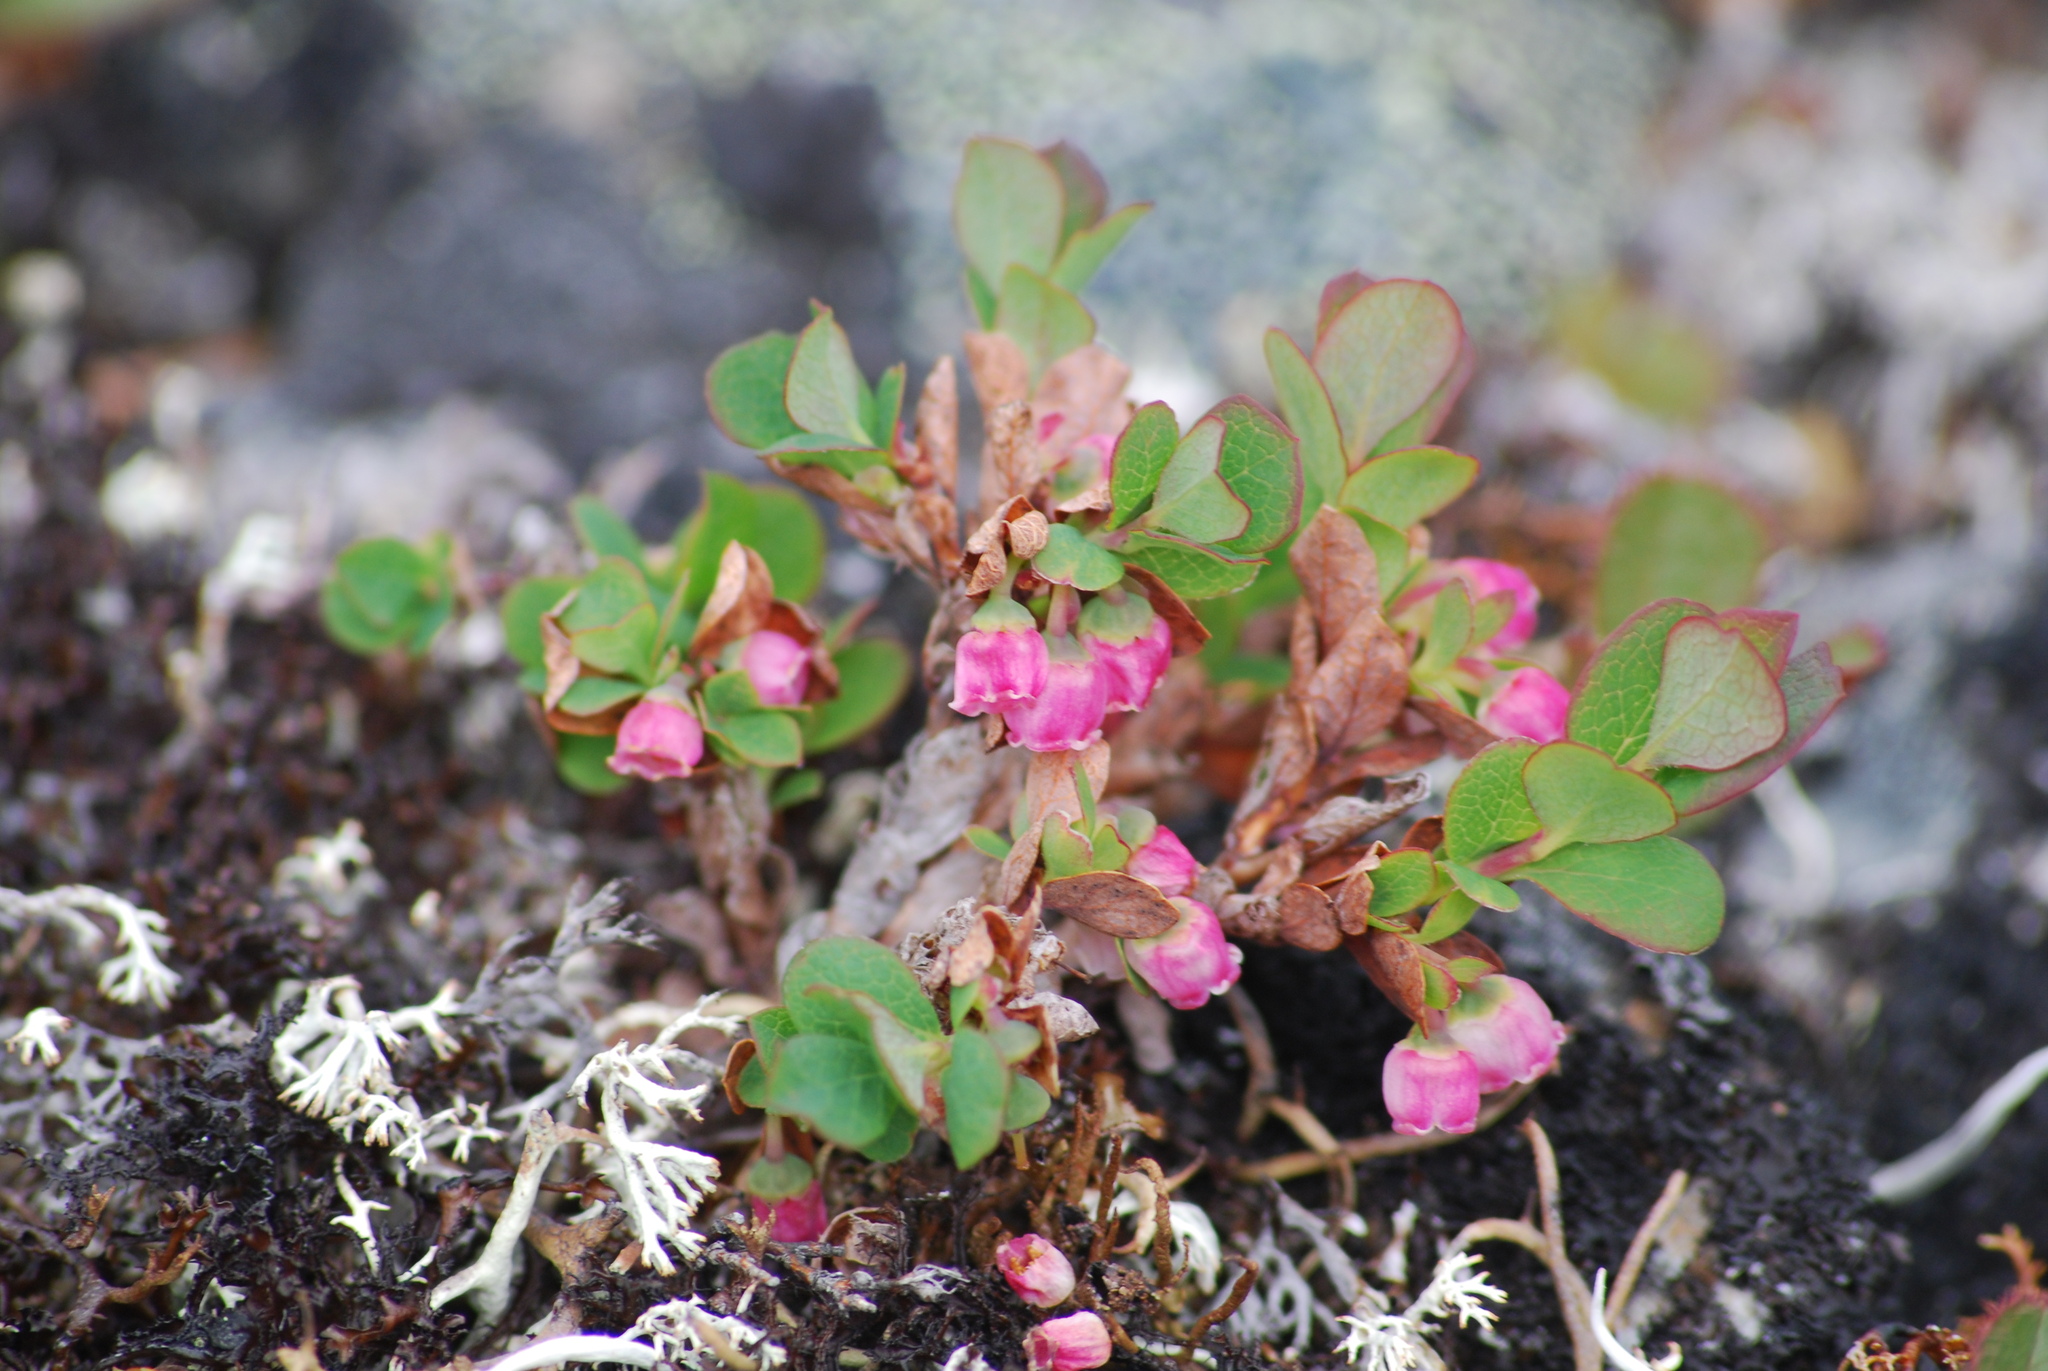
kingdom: Plantae
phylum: Tracheophyta
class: Magnoliopsida
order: Ericales
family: Ericaceae
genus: Vaccinium
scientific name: Vaccinium uliginosum
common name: Bog bilberry
